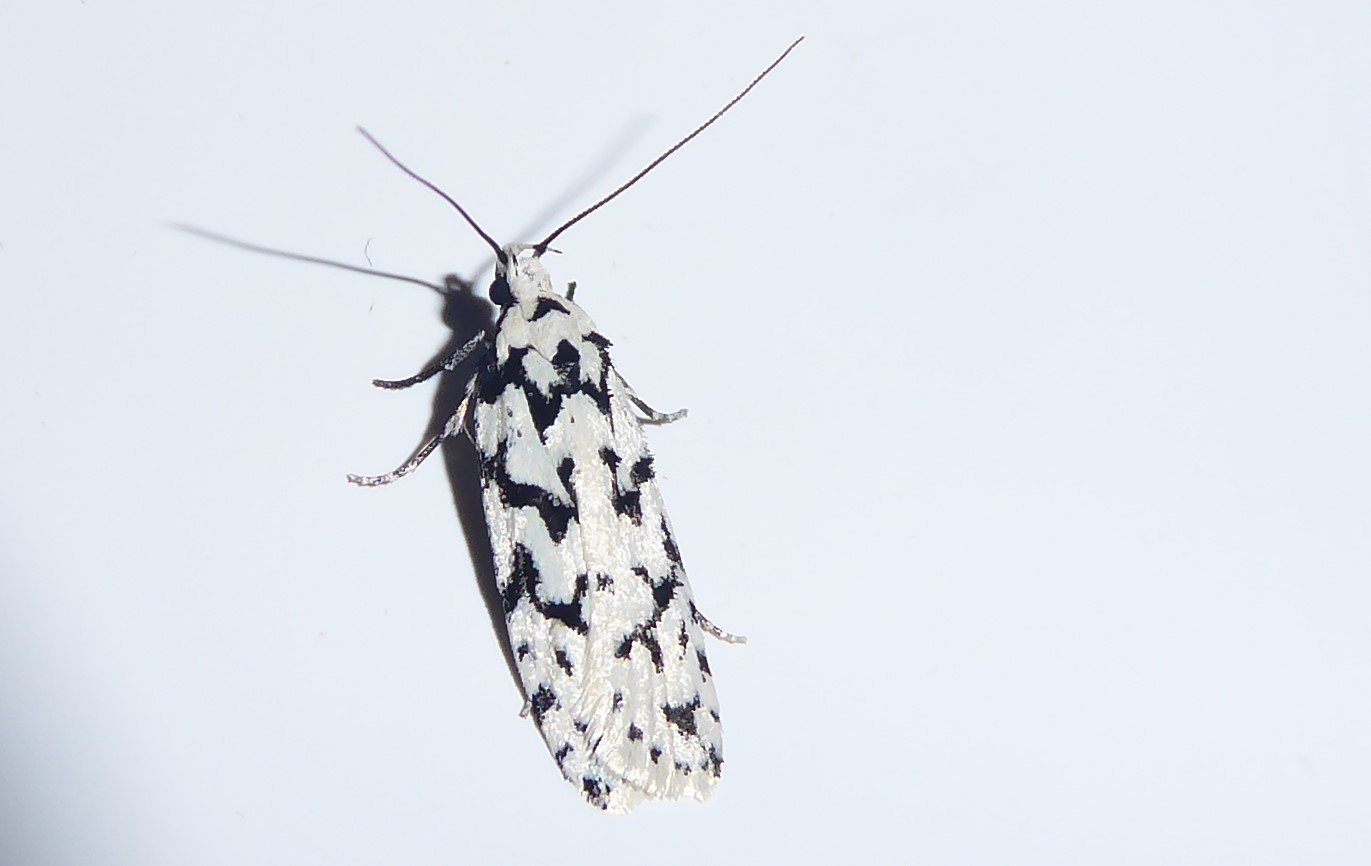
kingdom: Animalia
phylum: Arthropoda
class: Insecta
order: Lepidoptera
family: Oecophoridae
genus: Izatha
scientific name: Izatha katadiktya
